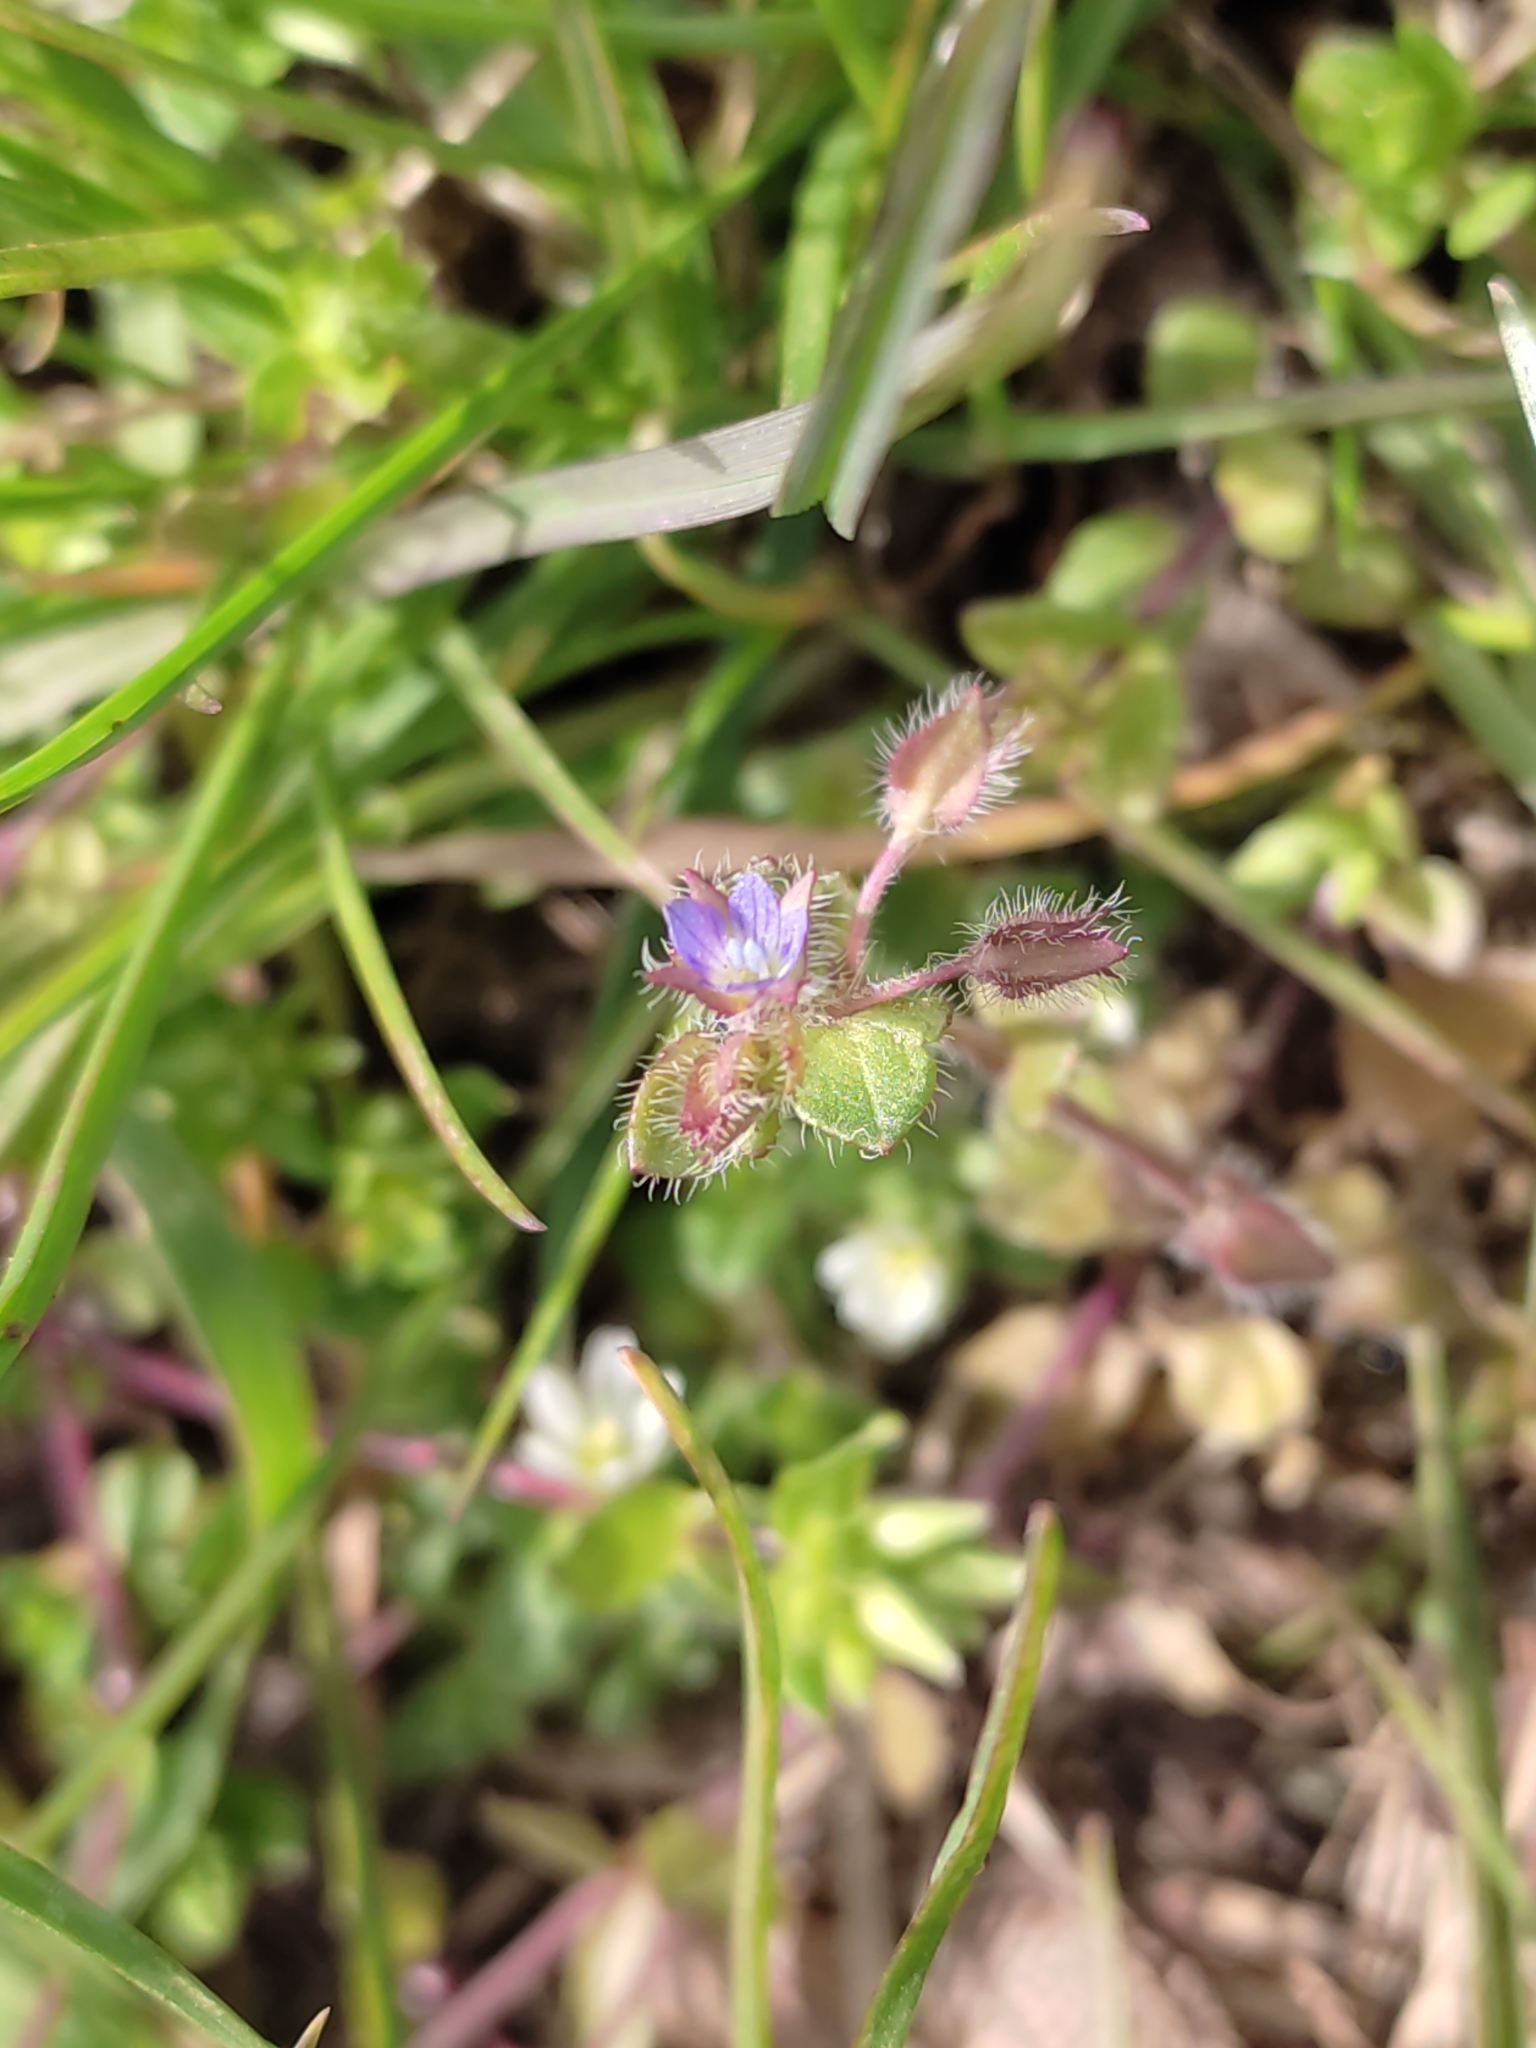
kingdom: Plantae
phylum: Tracheophyta
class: Magnoliopsida
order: Lamiales
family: Plantaginaceae
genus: Veronica
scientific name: Veronica hederifolia
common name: Ivy-leaved speedwell
